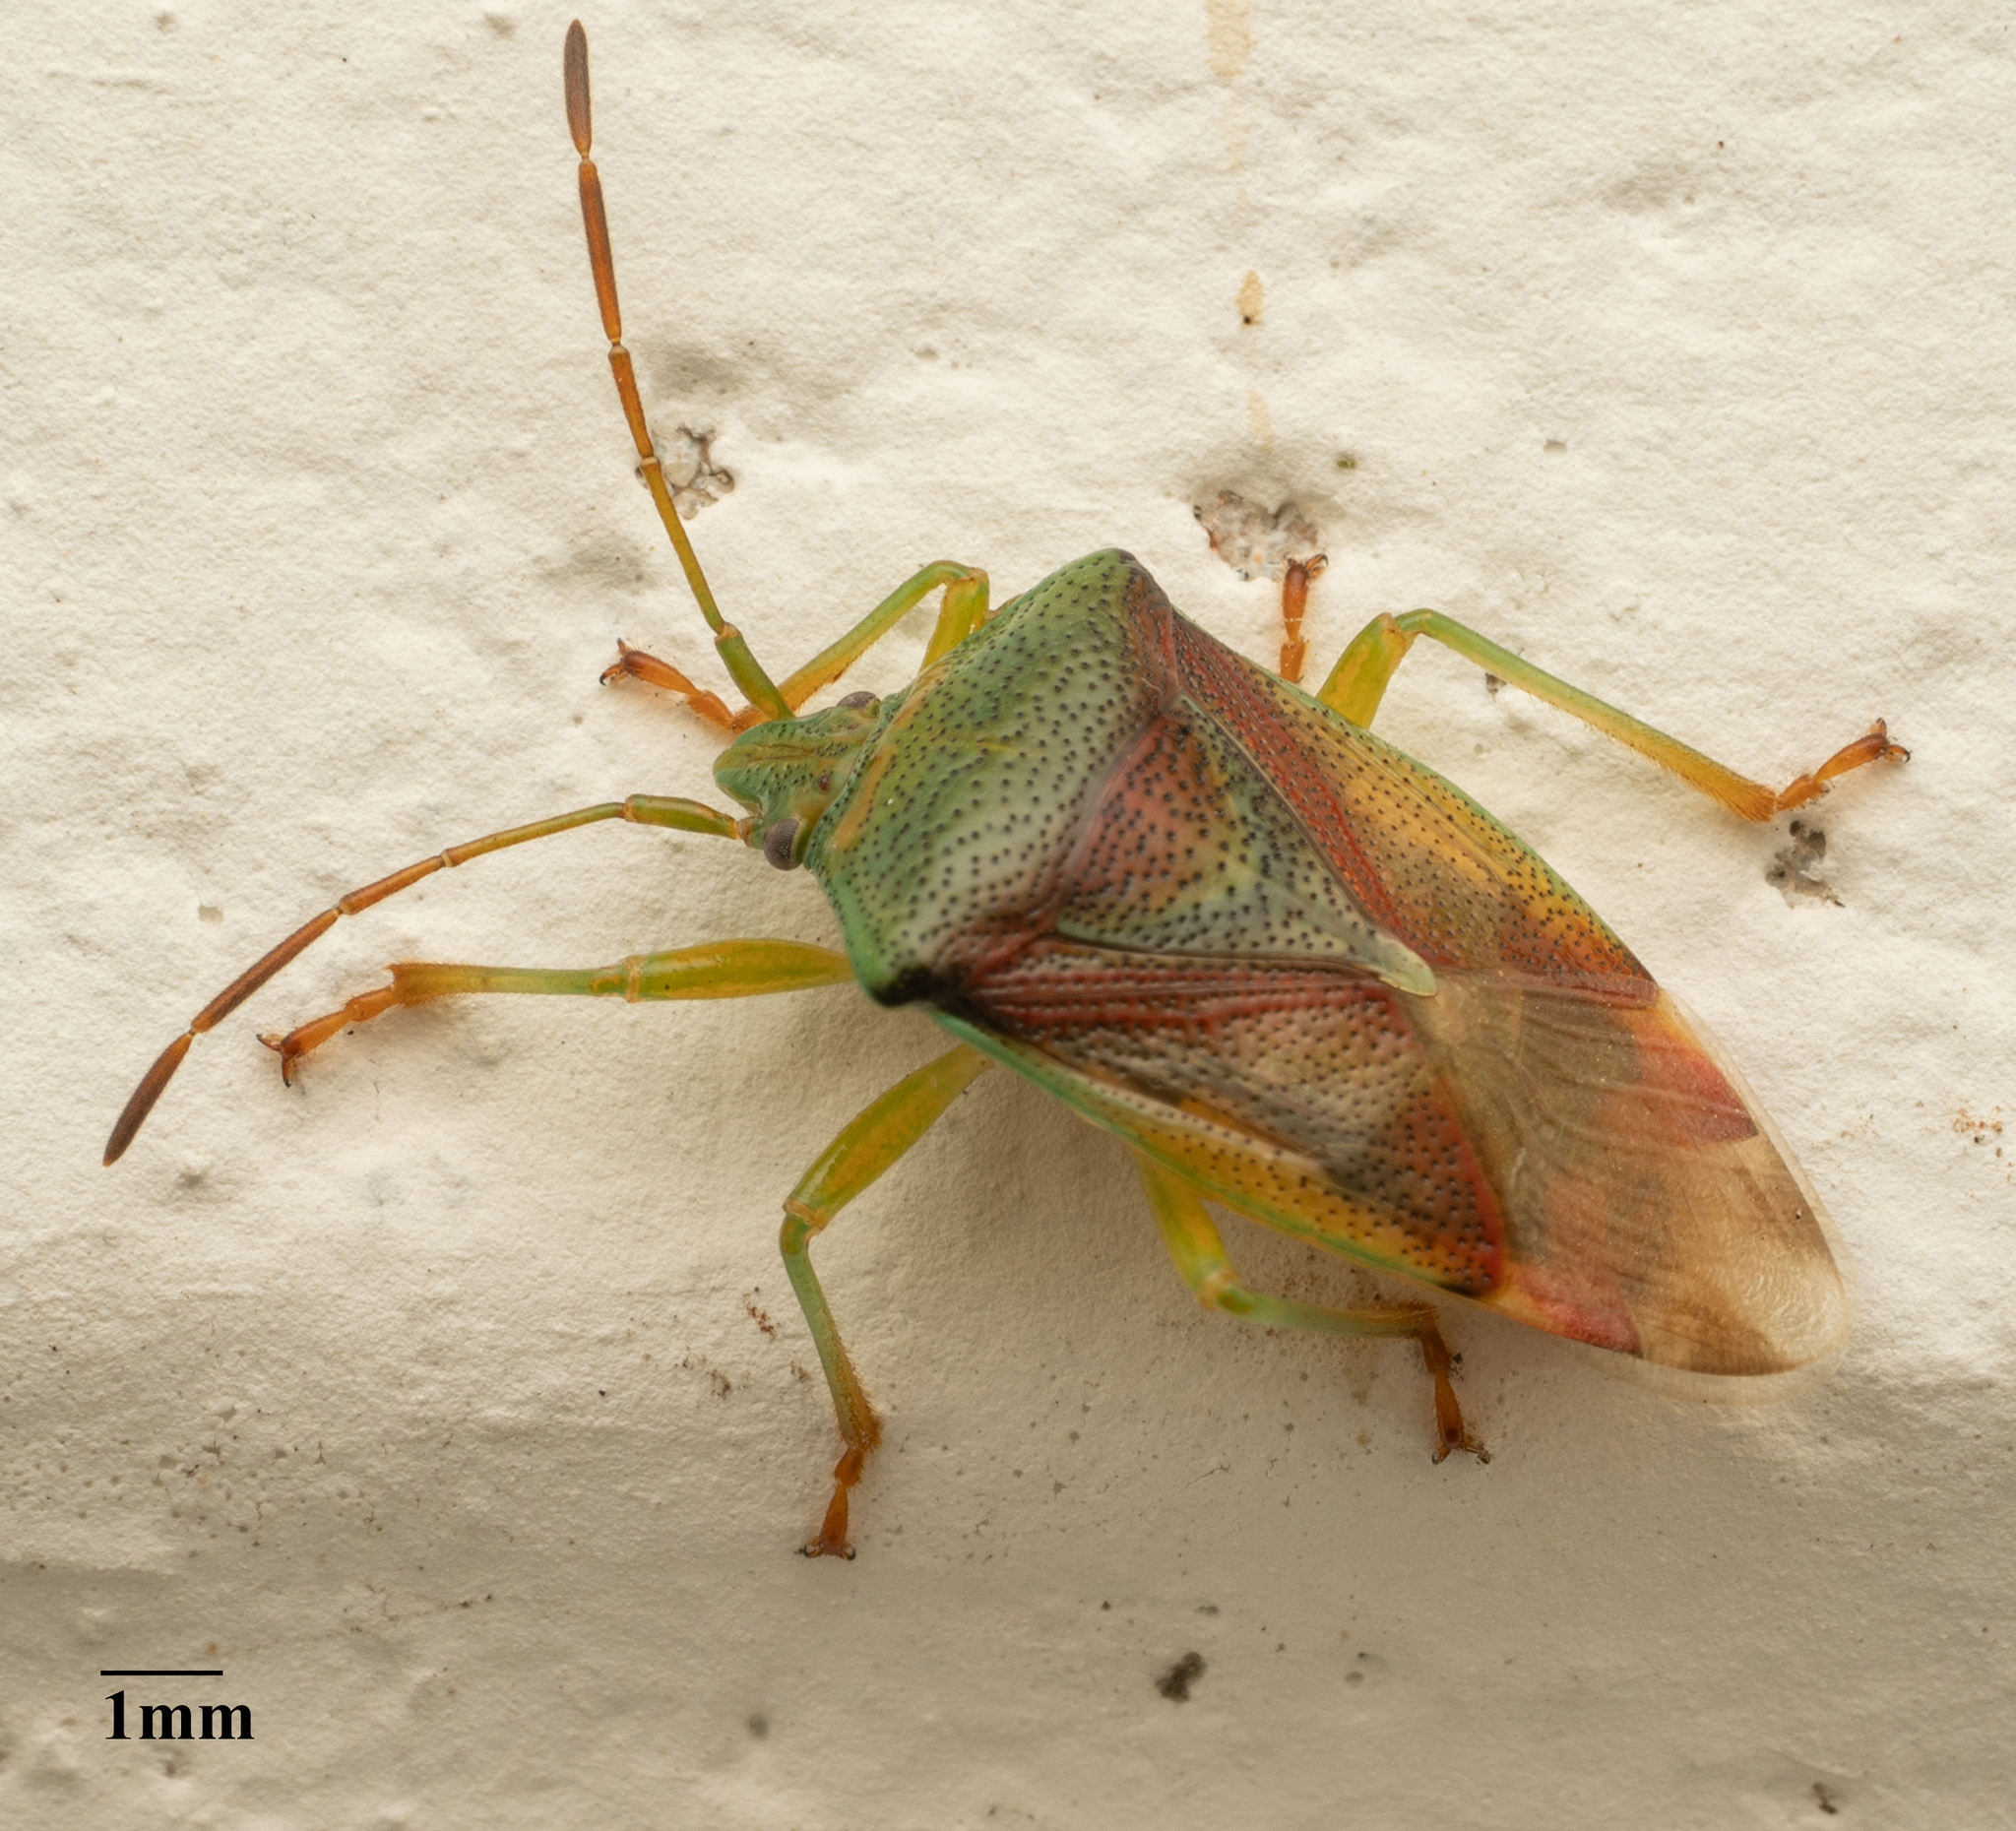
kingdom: Animalia
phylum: Arthropoda
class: Insecta
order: Hemiptera
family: Acanthosomatidae
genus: Elasmostethus
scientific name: Elasmostethus
